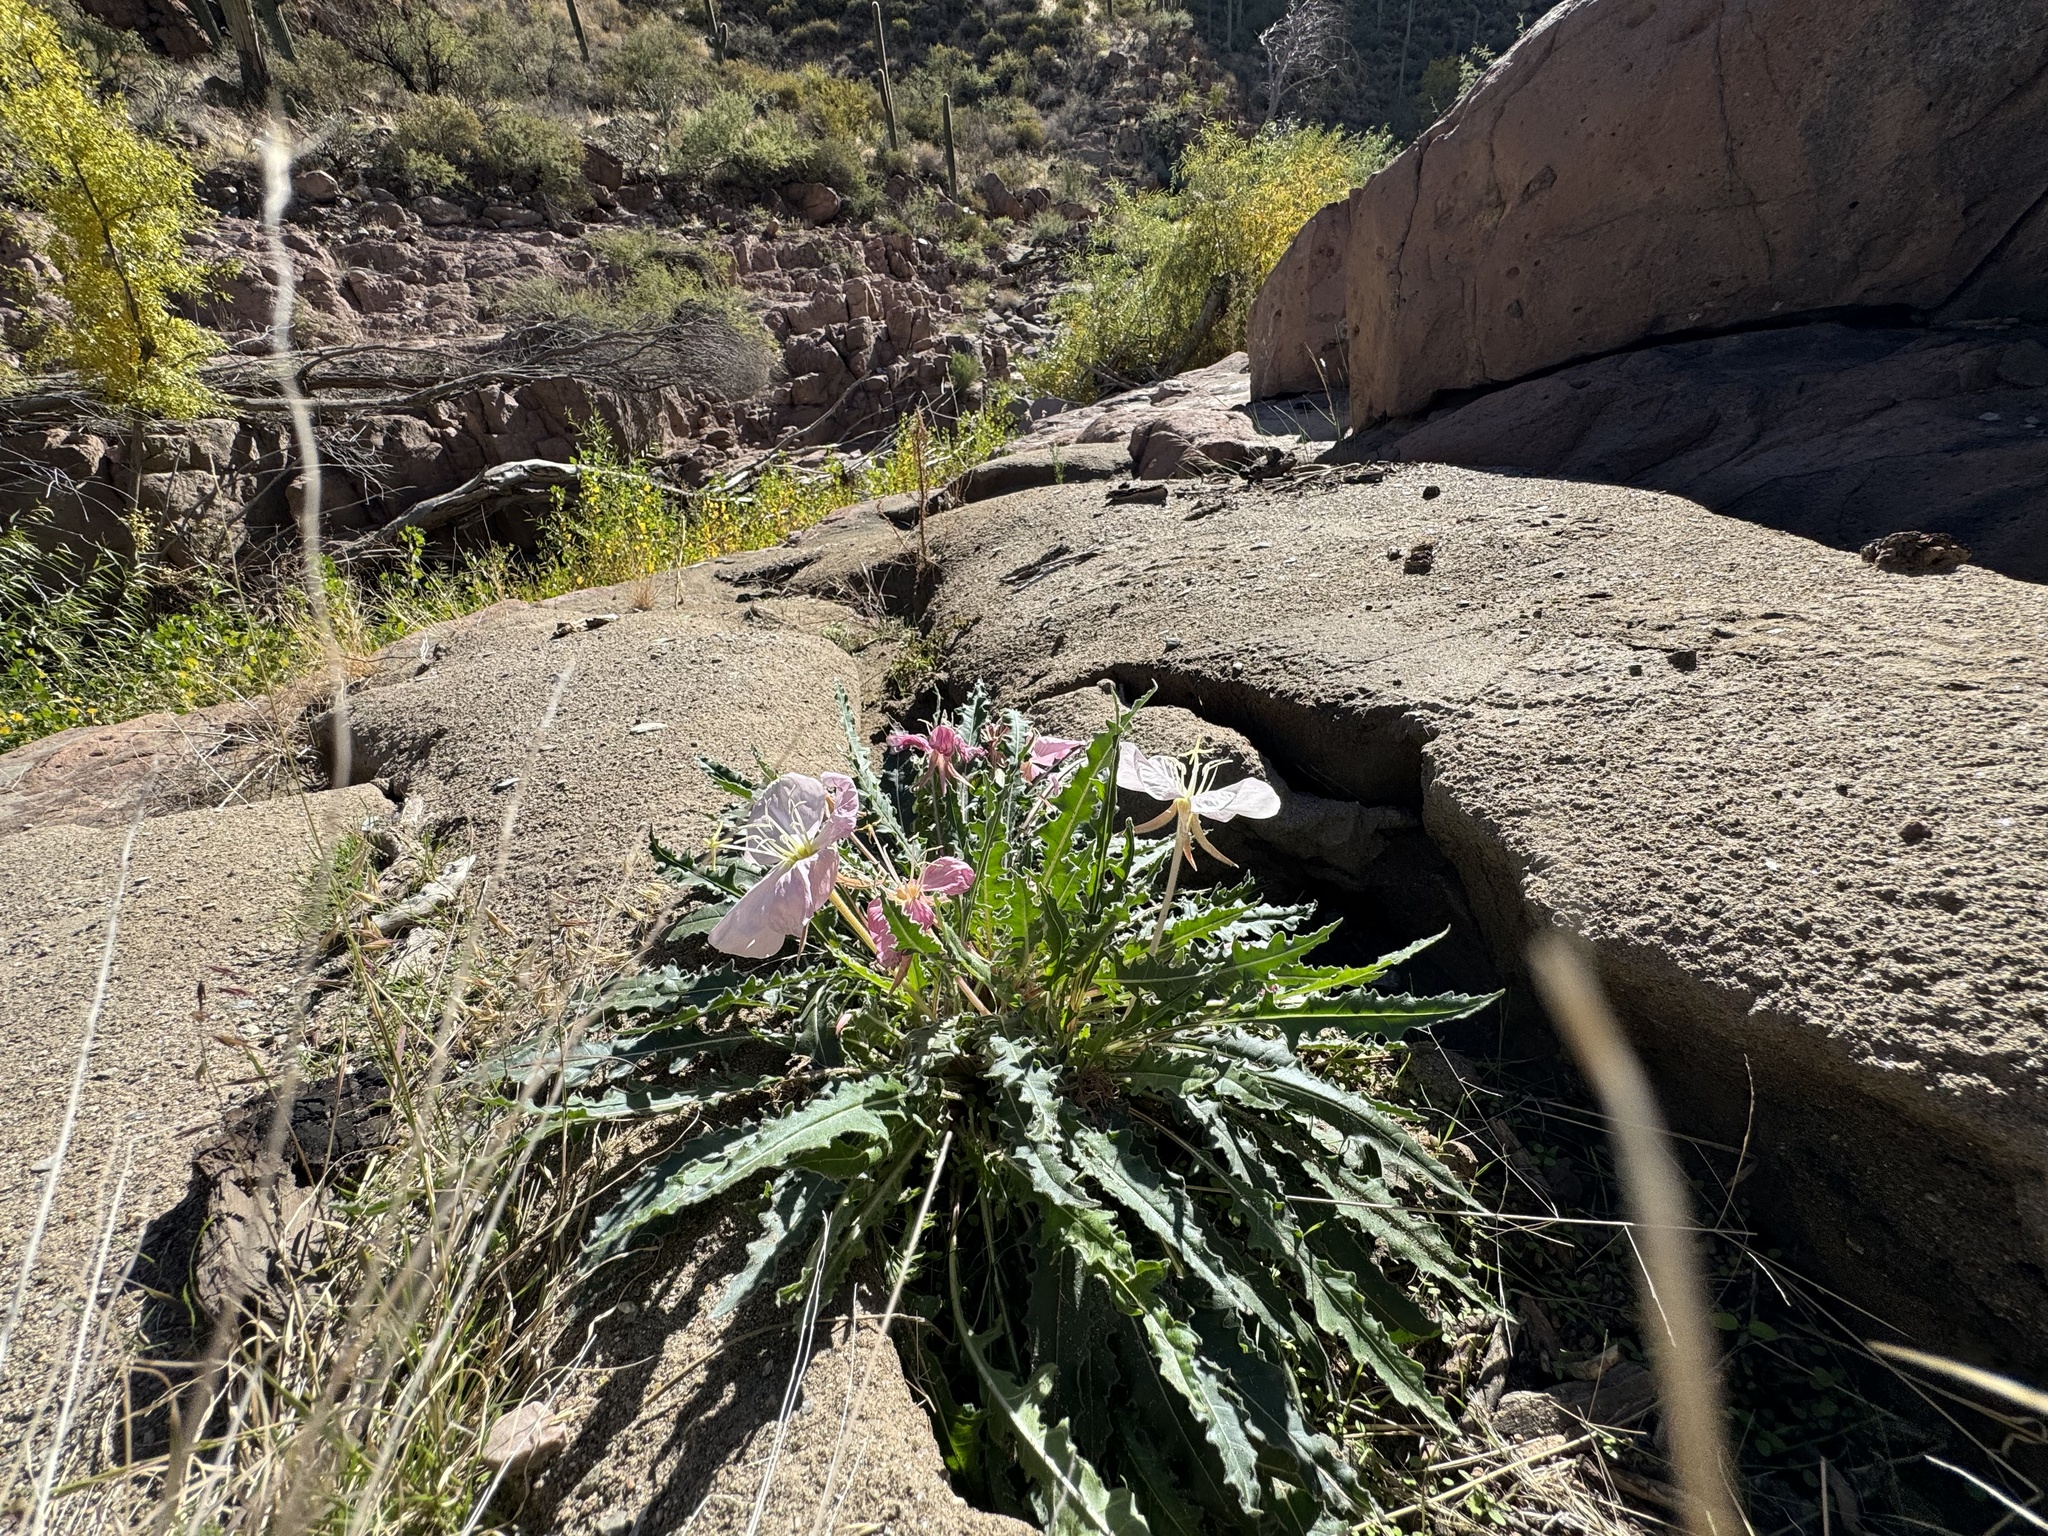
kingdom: Plantae
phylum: Tracheophyta
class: Magnoliopsida
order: Myrtales
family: Onagraceae
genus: Oenothera
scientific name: Oenothera cespitosa
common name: Tufted evening-primrose
